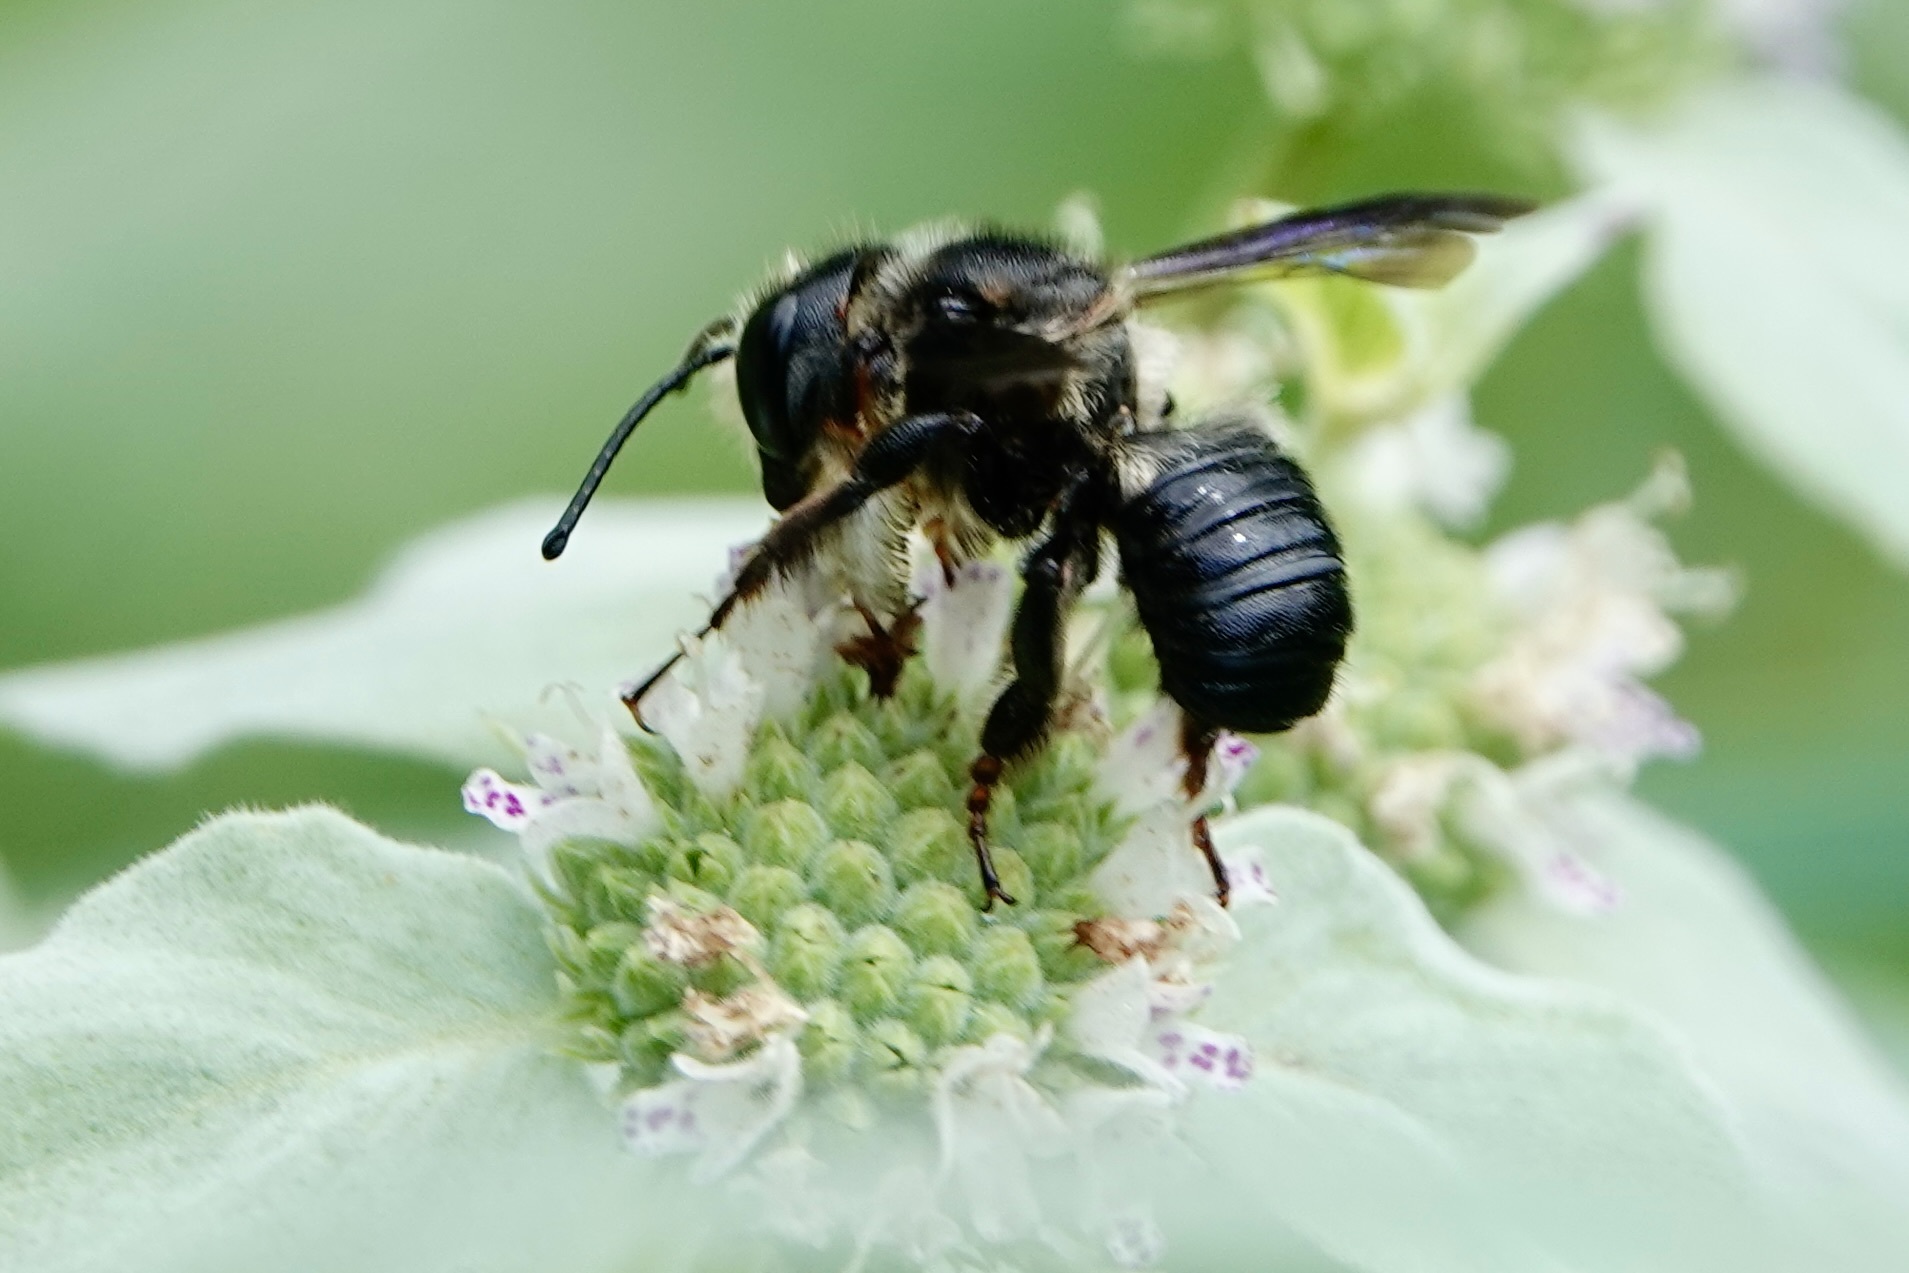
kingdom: Animalia
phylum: Arthropoda
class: Insecta
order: Hymenoptera
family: Megachilidae
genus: Megachile
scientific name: Megachile xylocopoides
